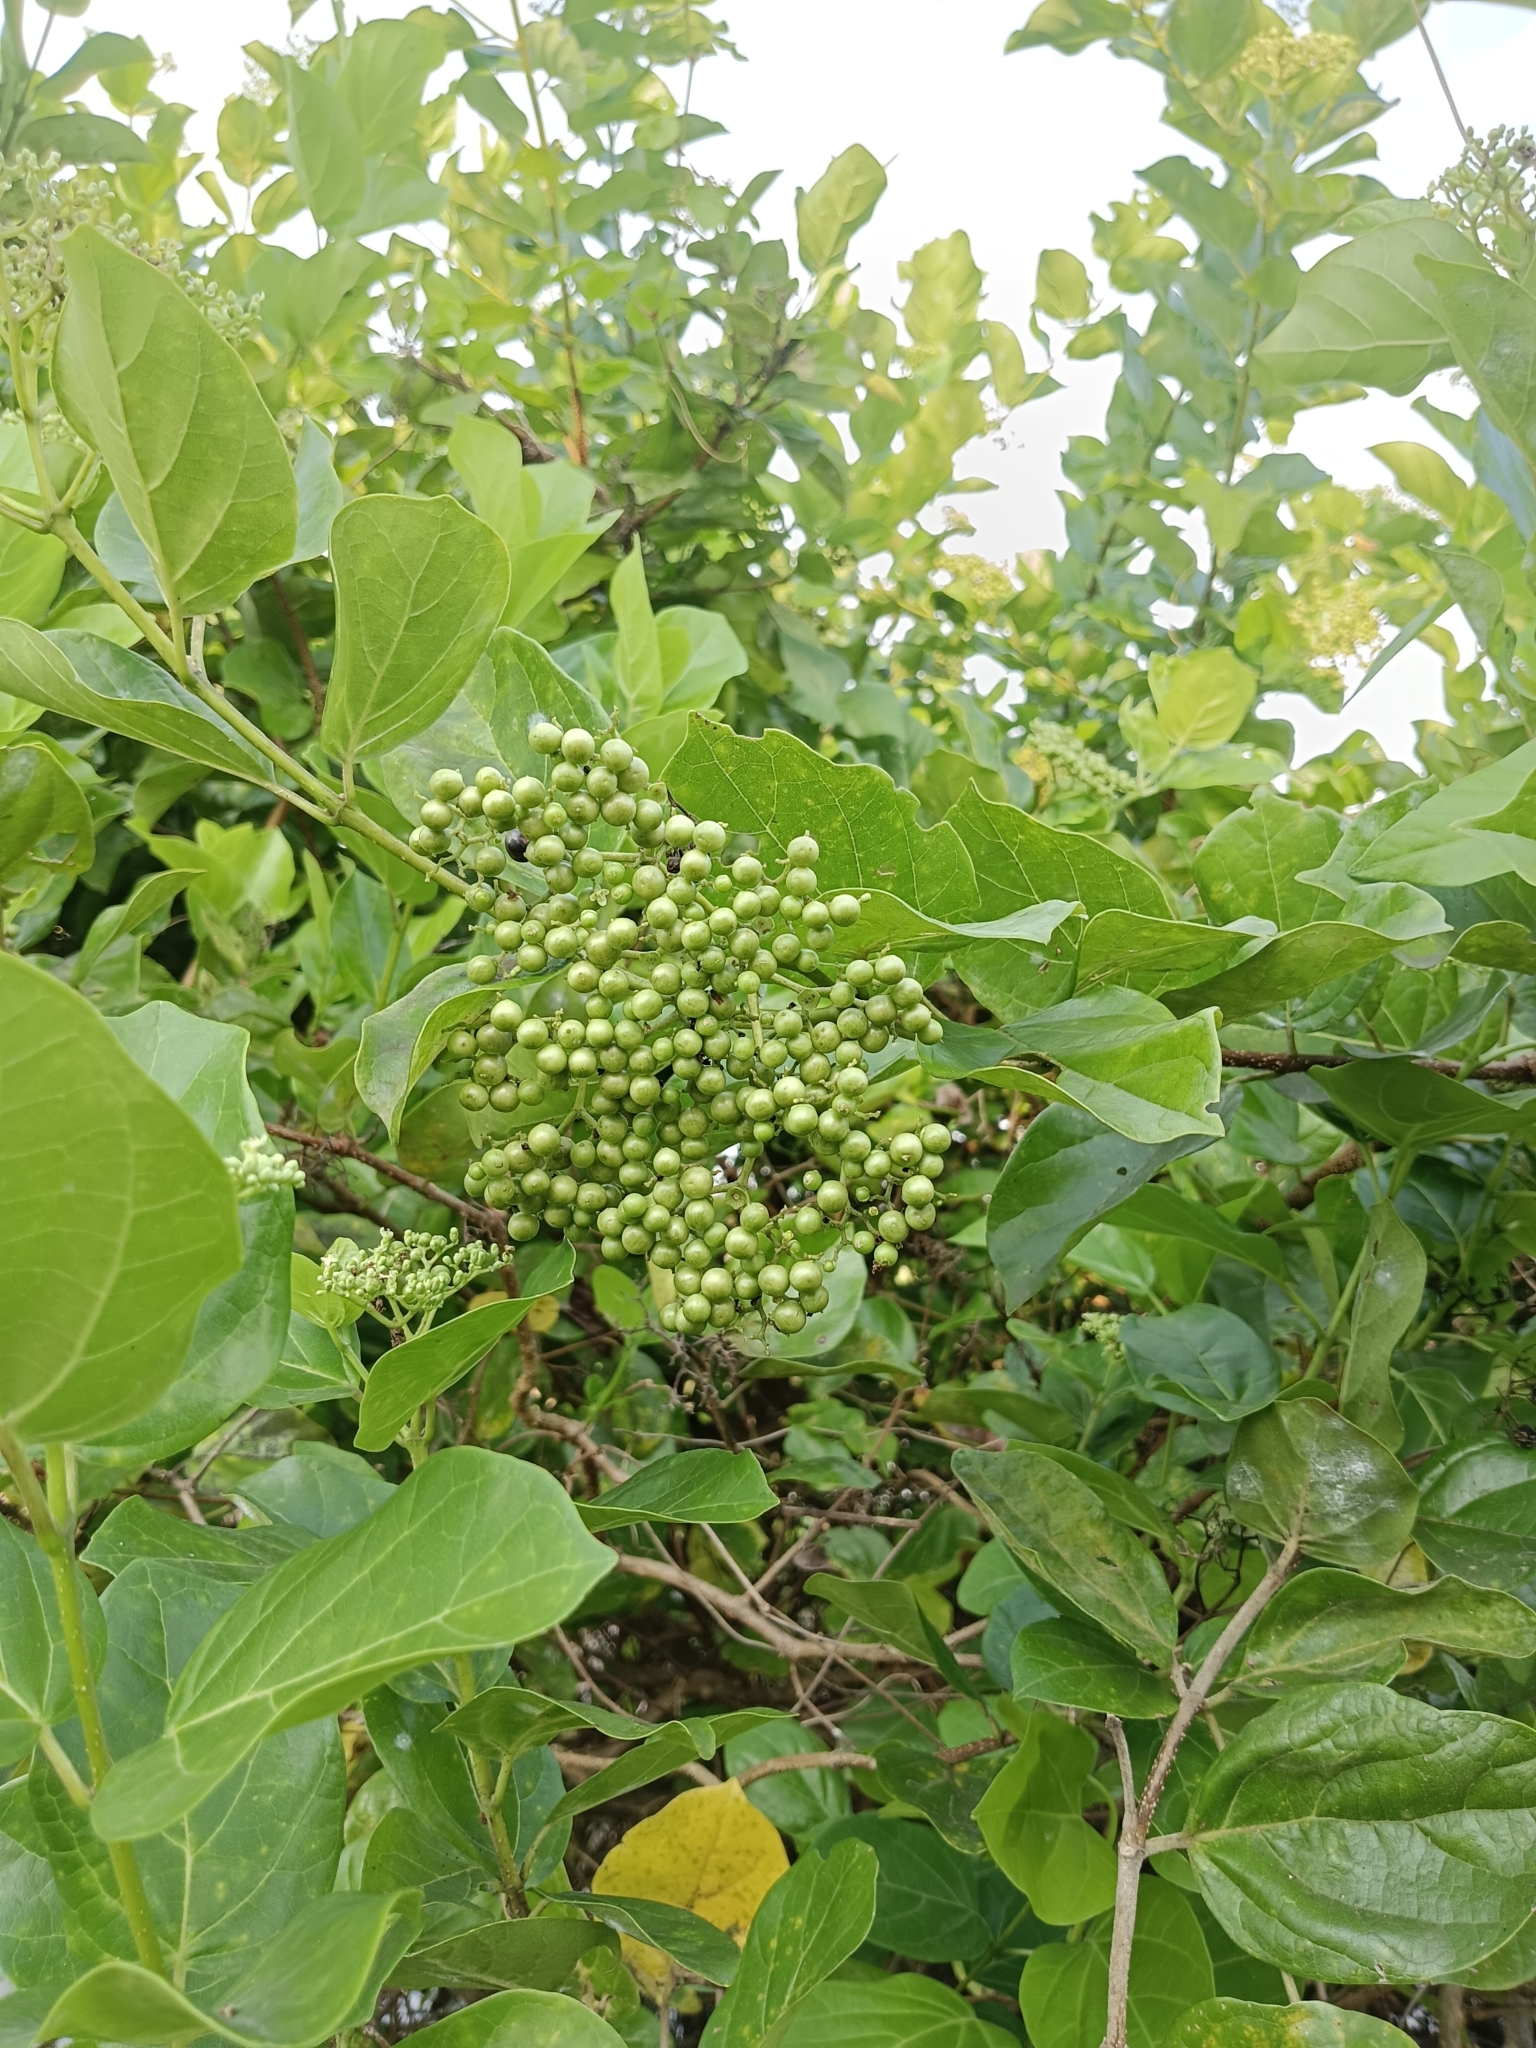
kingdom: Plantae
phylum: Tracheophyta
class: Magnoliopsida
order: Lamiales
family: Lamiaceae
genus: Premna
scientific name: Premna serratifolia
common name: Bastard guelder
